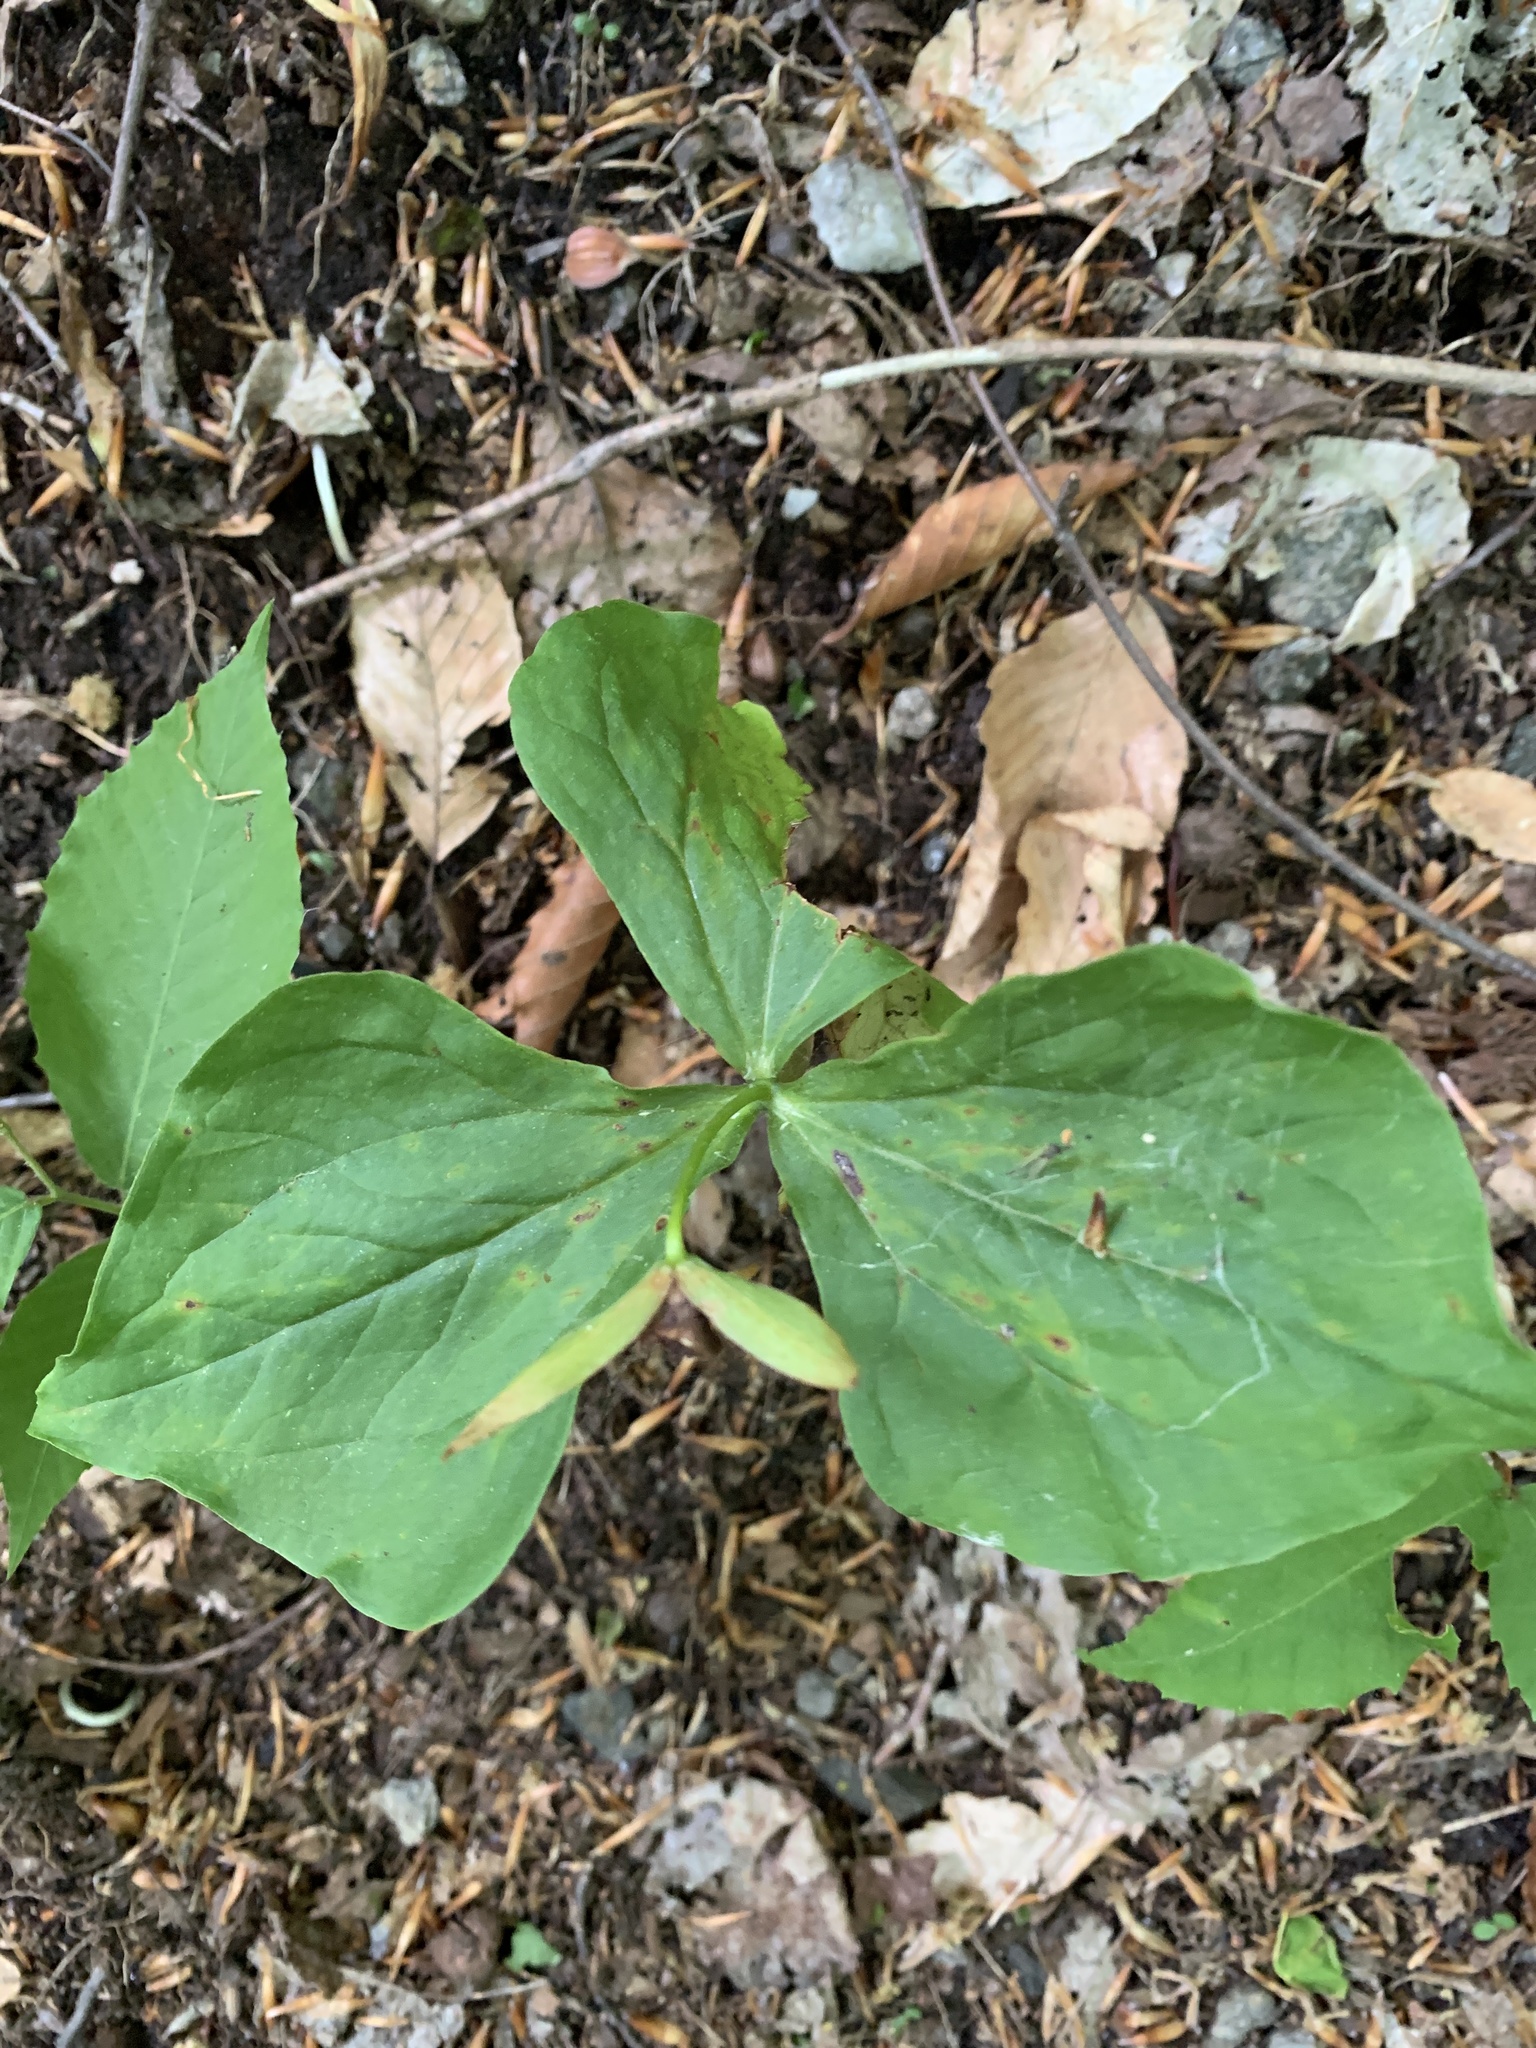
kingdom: Plantae
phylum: Tracheophyta
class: Liliopsida
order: Liliales
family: Melanthiaceae
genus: Trillium
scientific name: Trillium erectum
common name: Purple trillium
